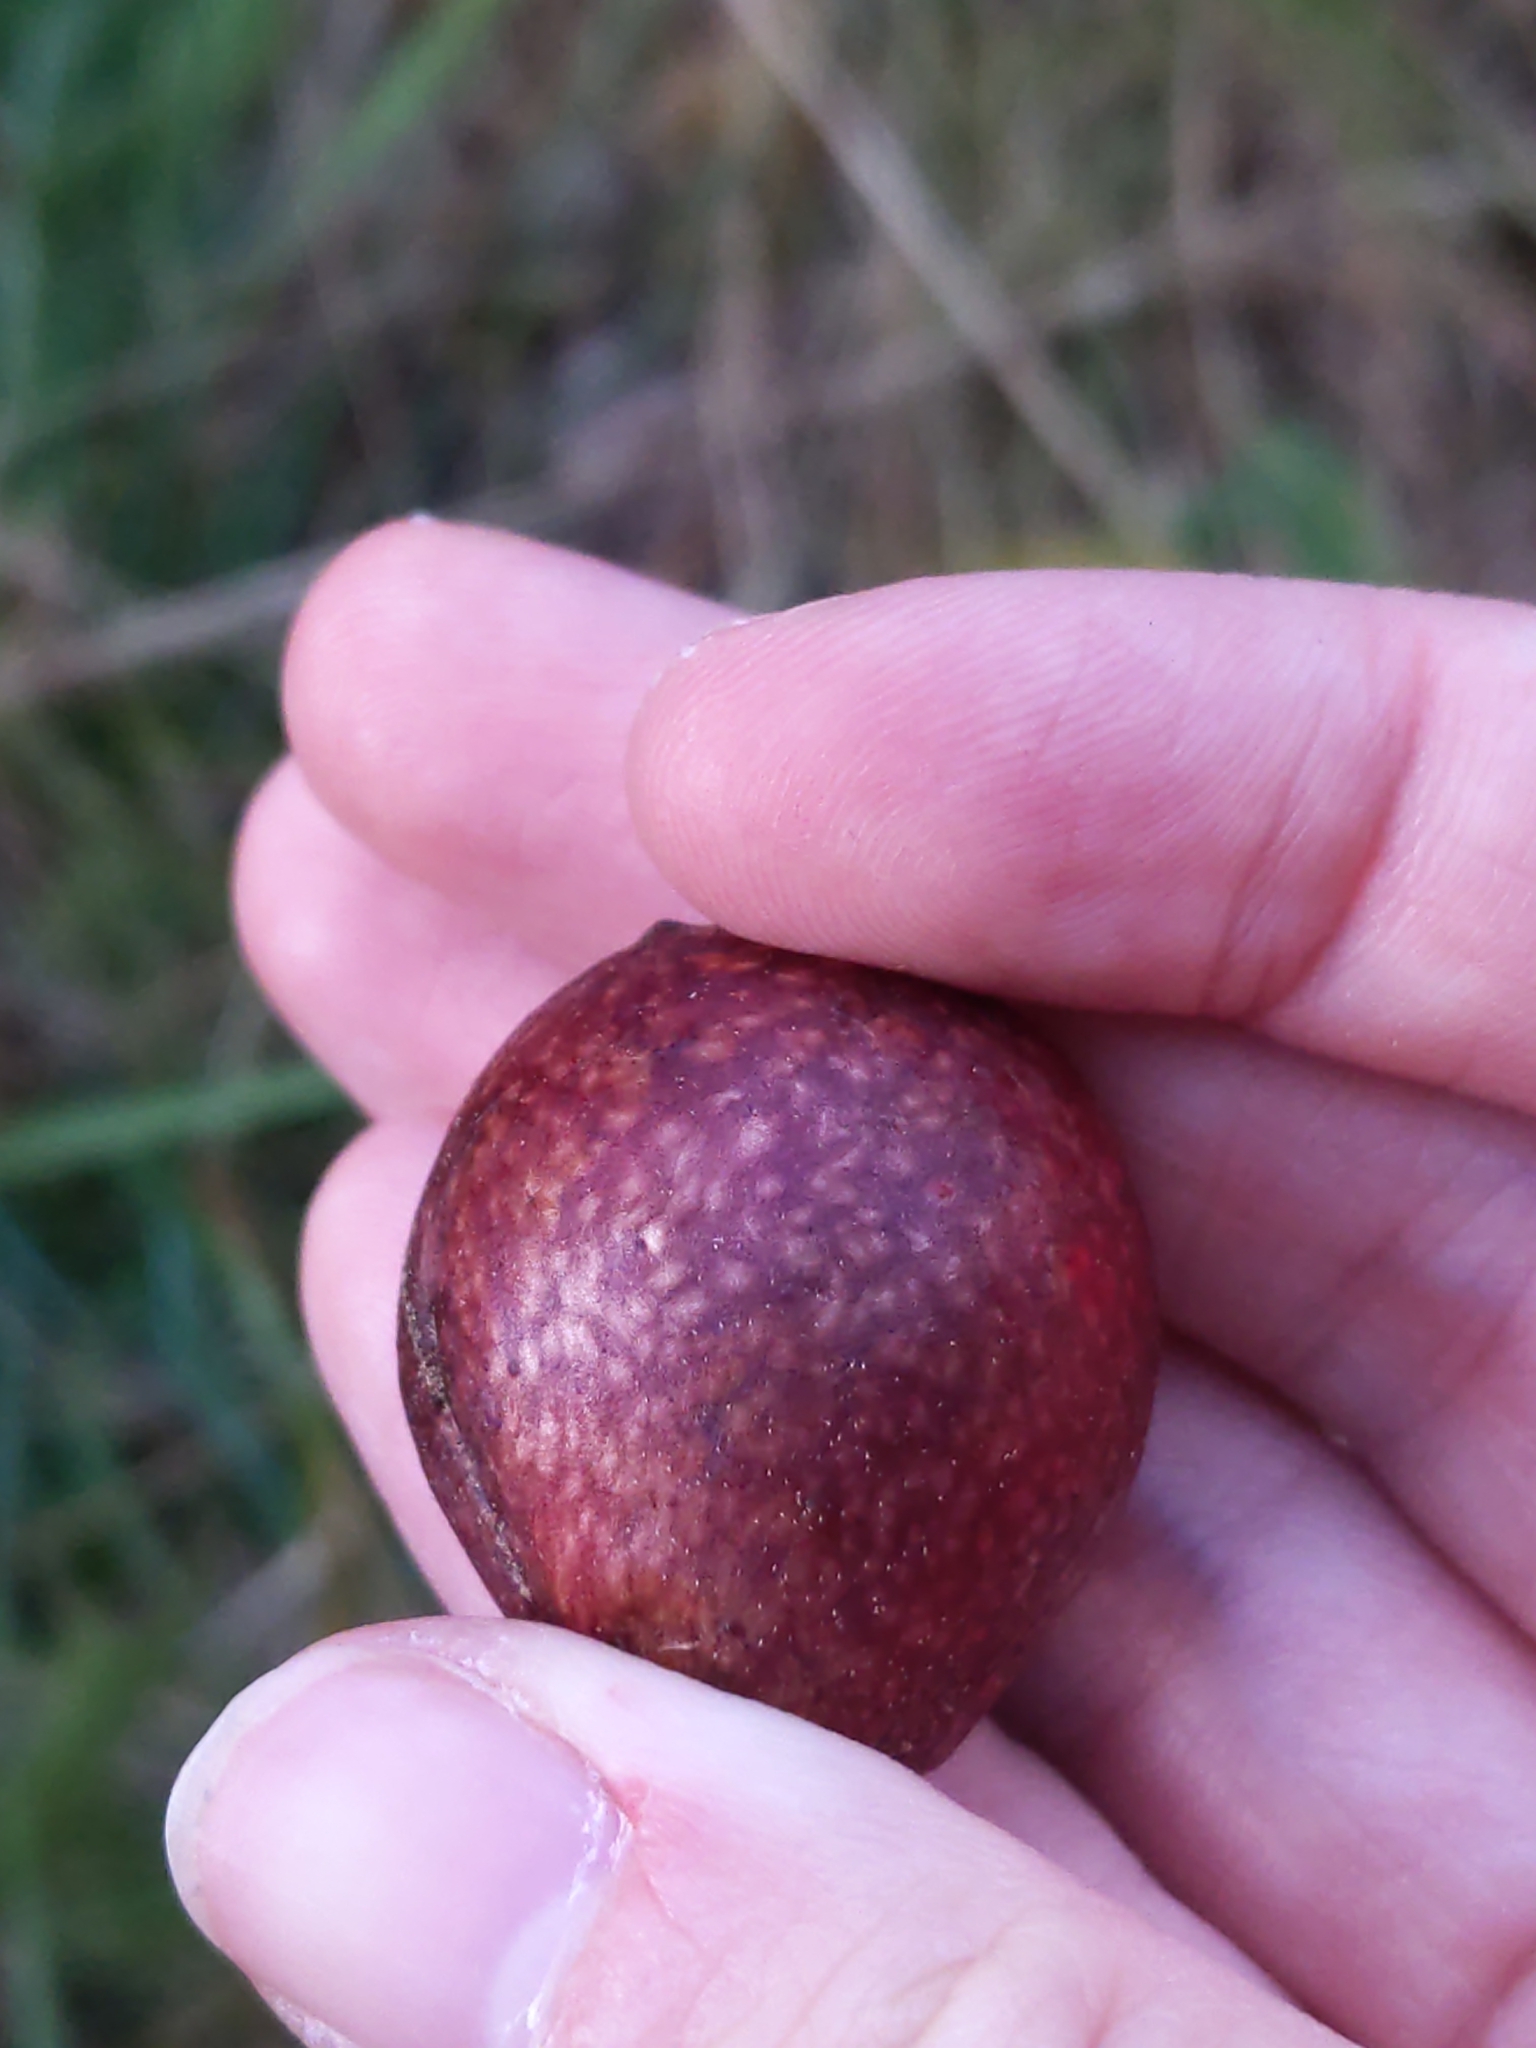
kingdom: Animalia
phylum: Arthropoda
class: Insecta
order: Hymenoptera
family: Cynipidae
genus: Amphibolips
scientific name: Amphibolips
